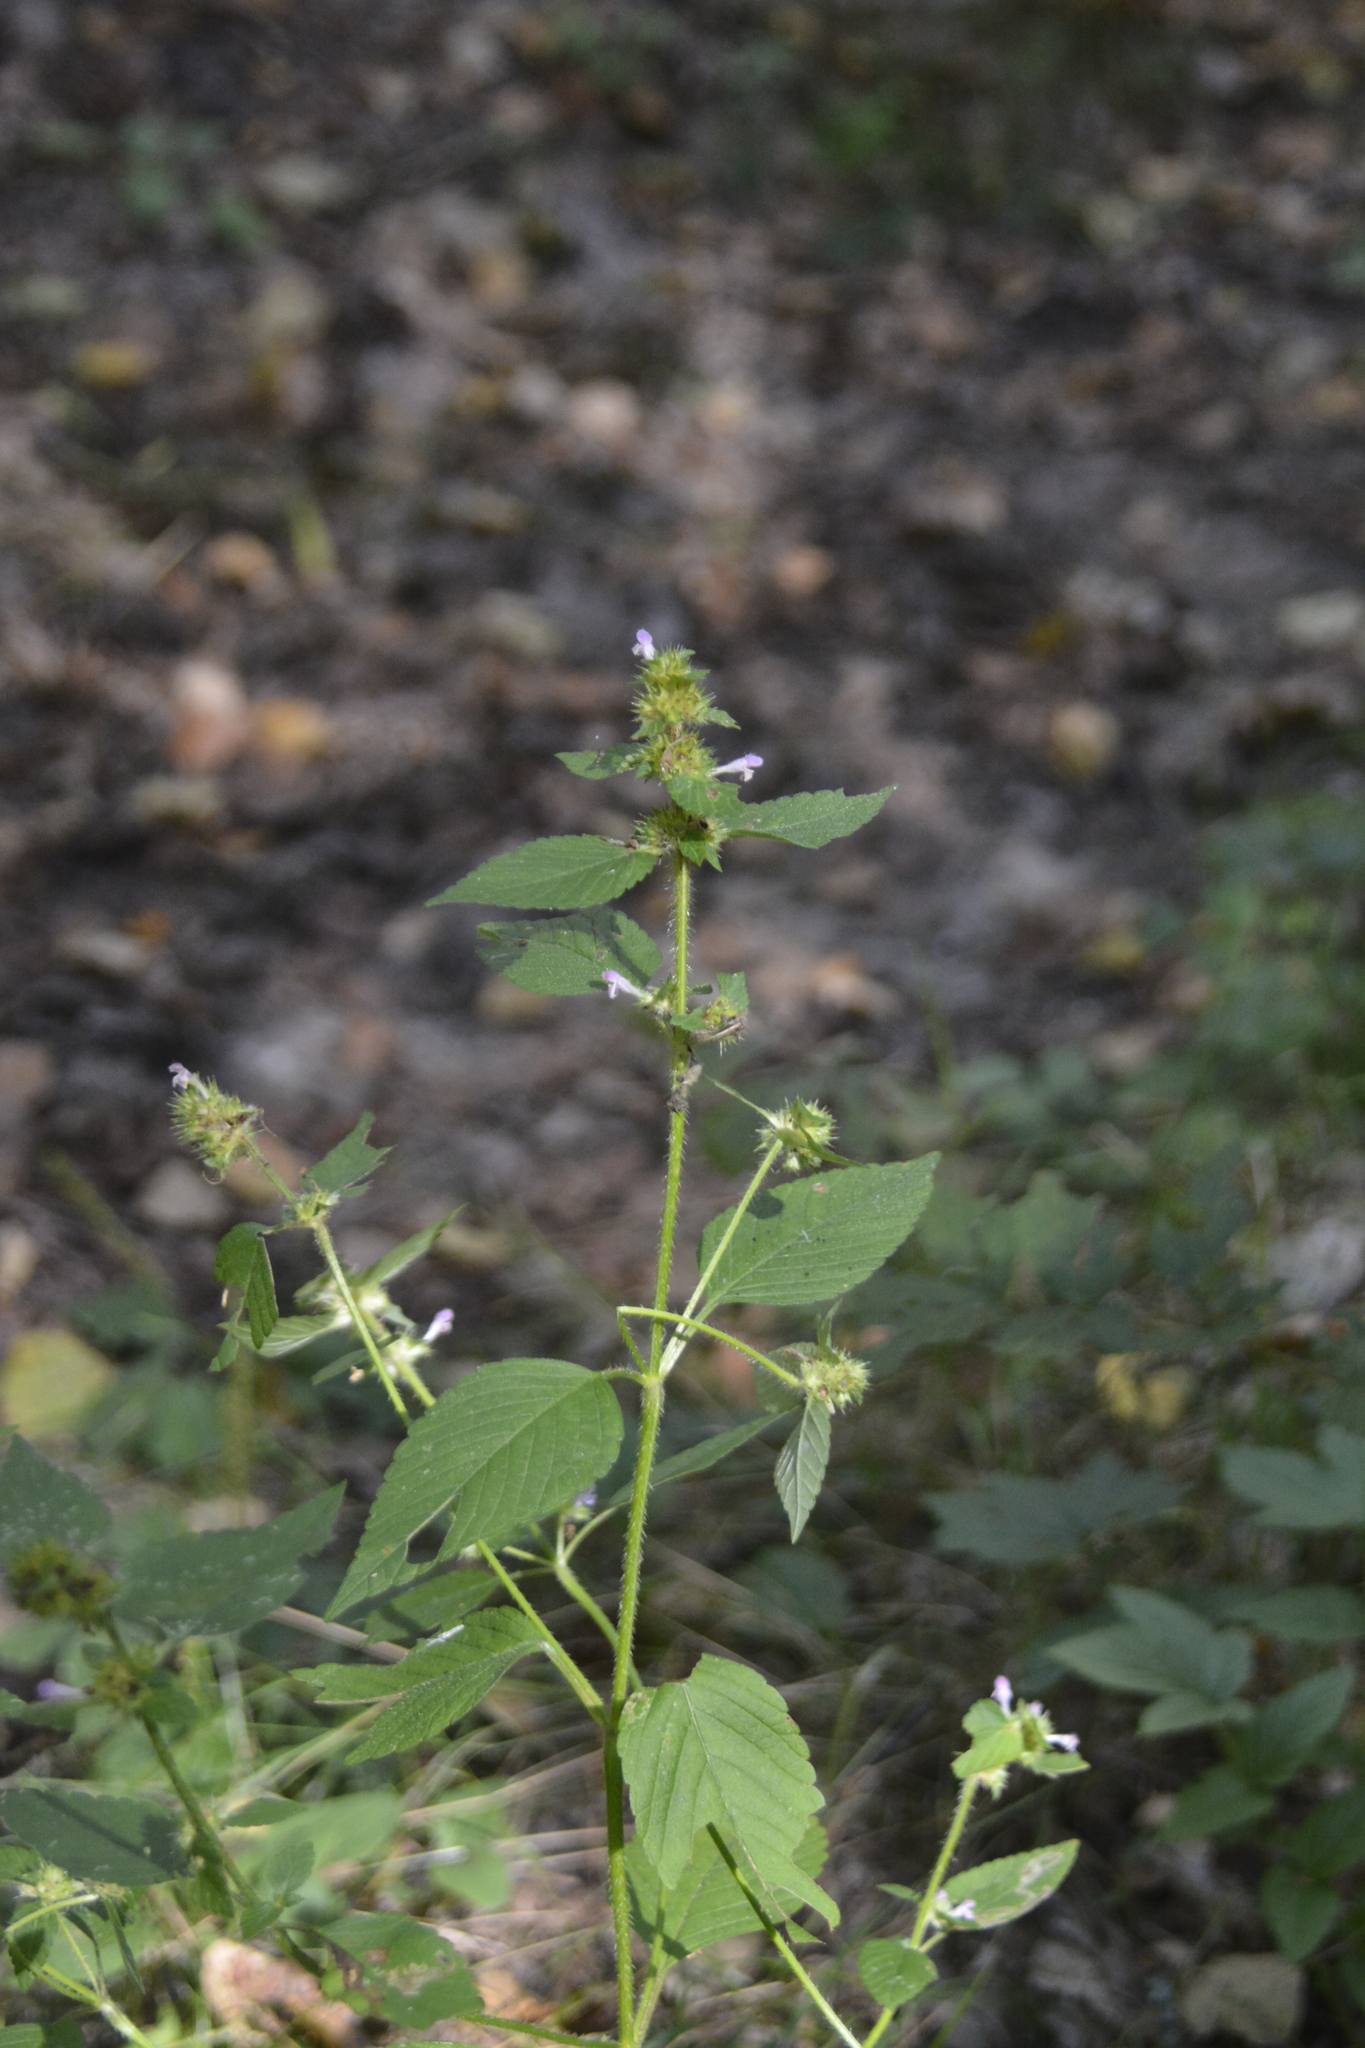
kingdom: Plantae
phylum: Tracheophyta
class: Magnoliopsida
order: Lamiales
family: Lamiaceae
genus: Galeopsis
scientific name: Galeopsis bifida
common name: Bifid hemp-nettle
